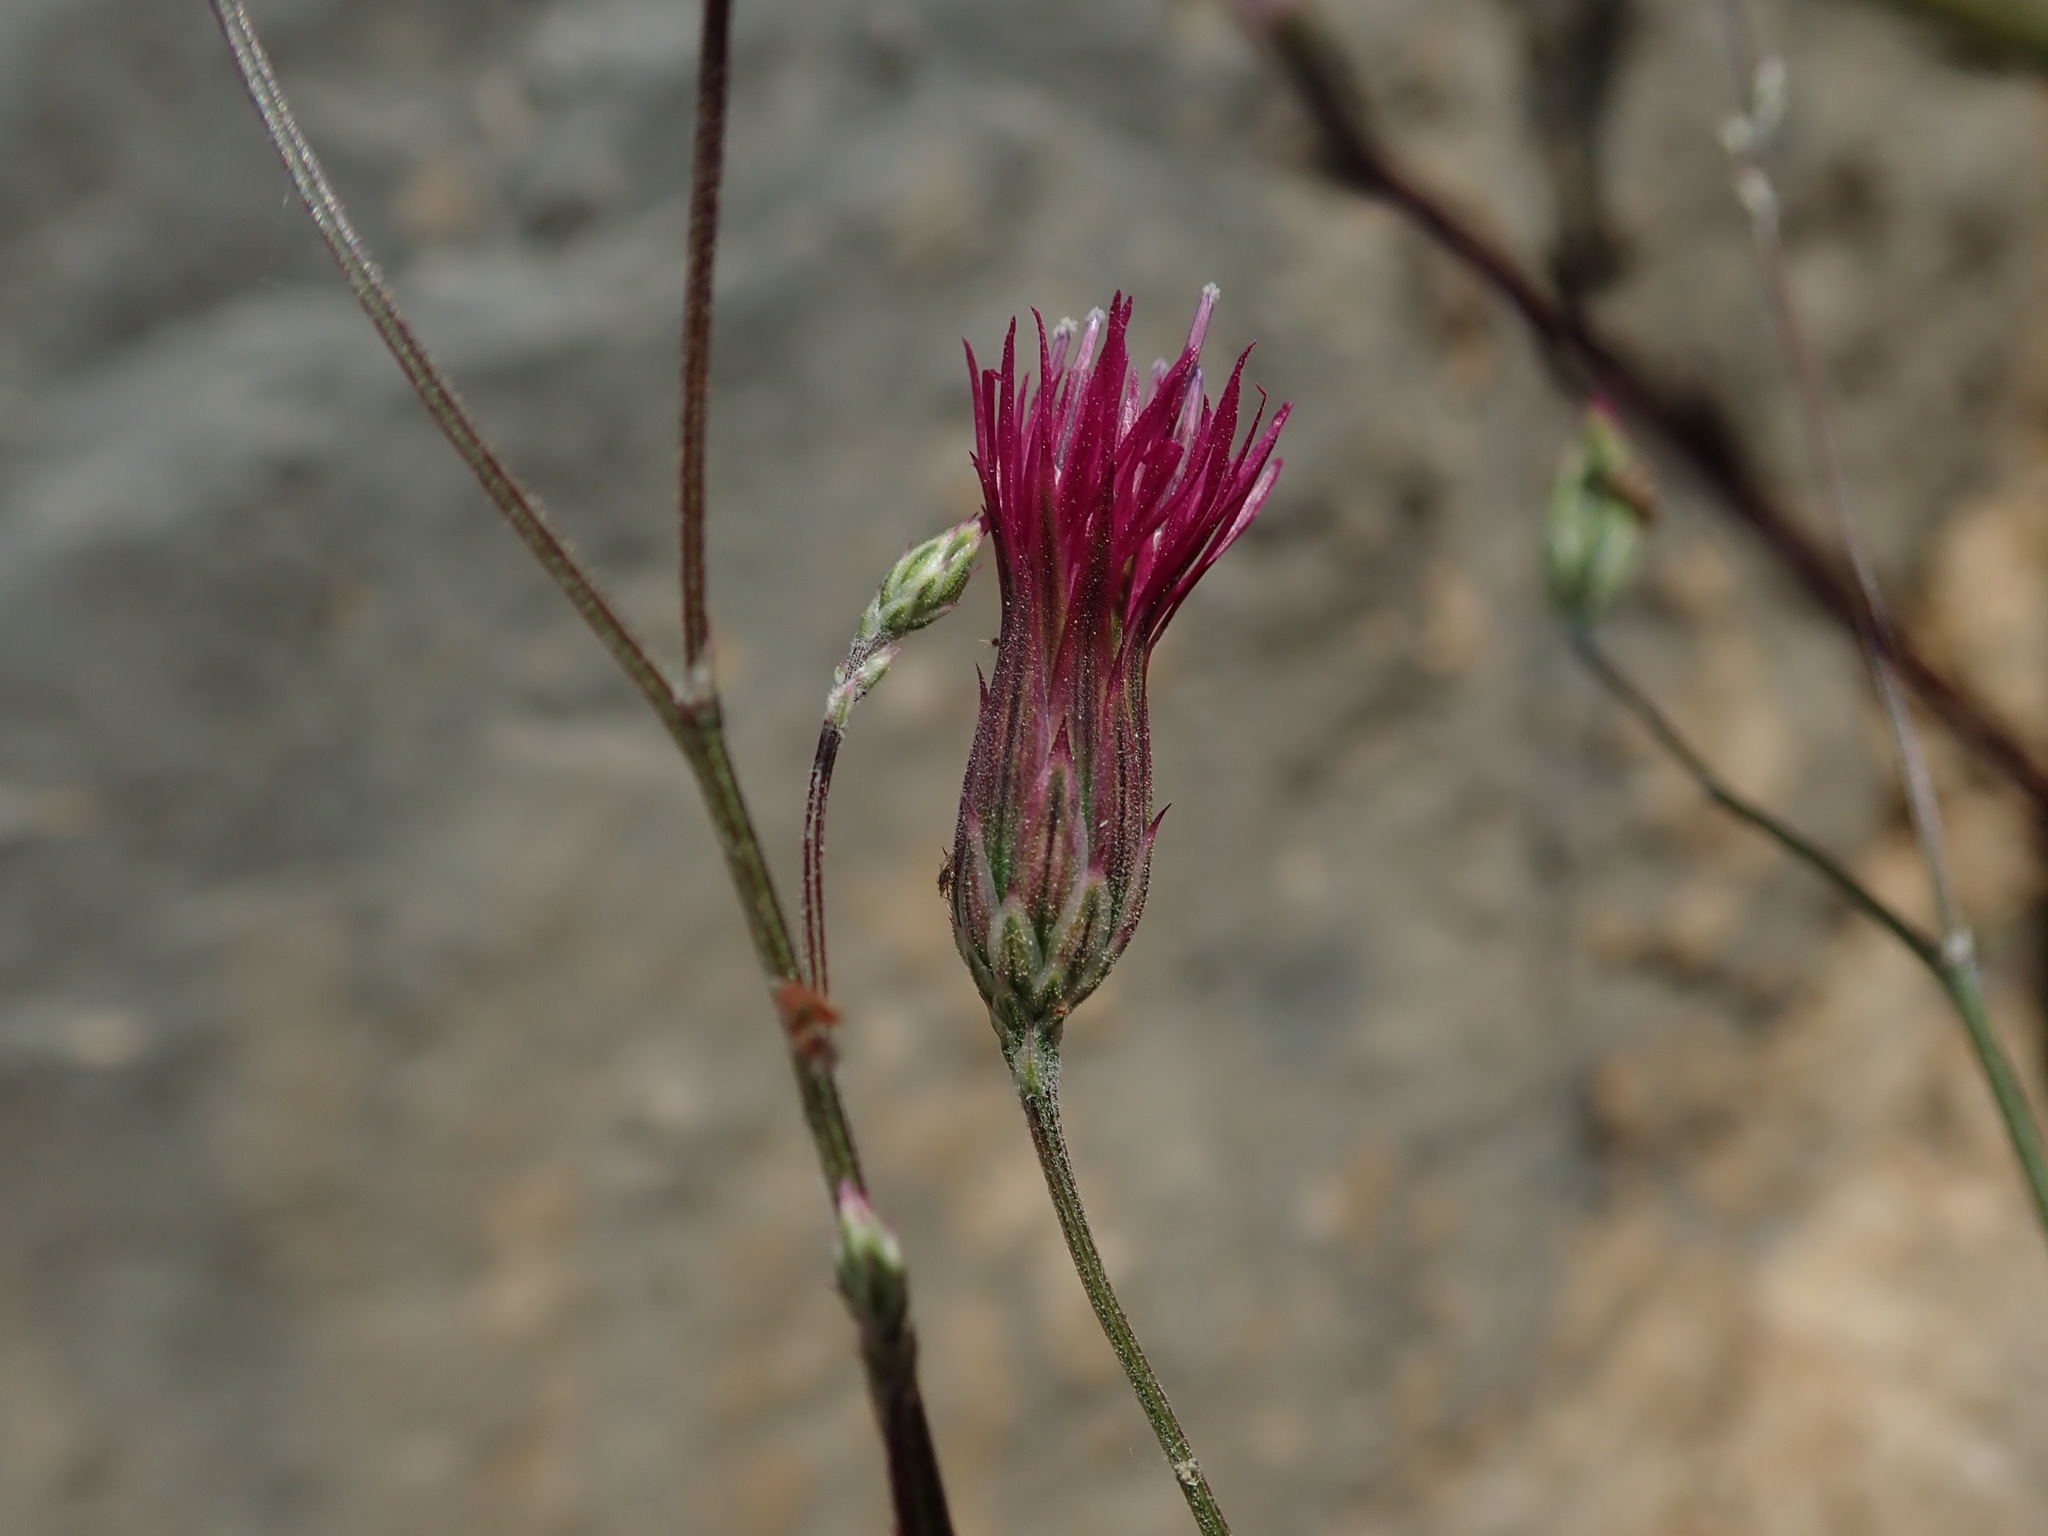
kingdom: Plantae
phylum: Tracheophyta
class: Magnoliopsida
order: Asterales
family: Asteraceae
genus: Crupina
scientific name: Crupina crupinastrum
